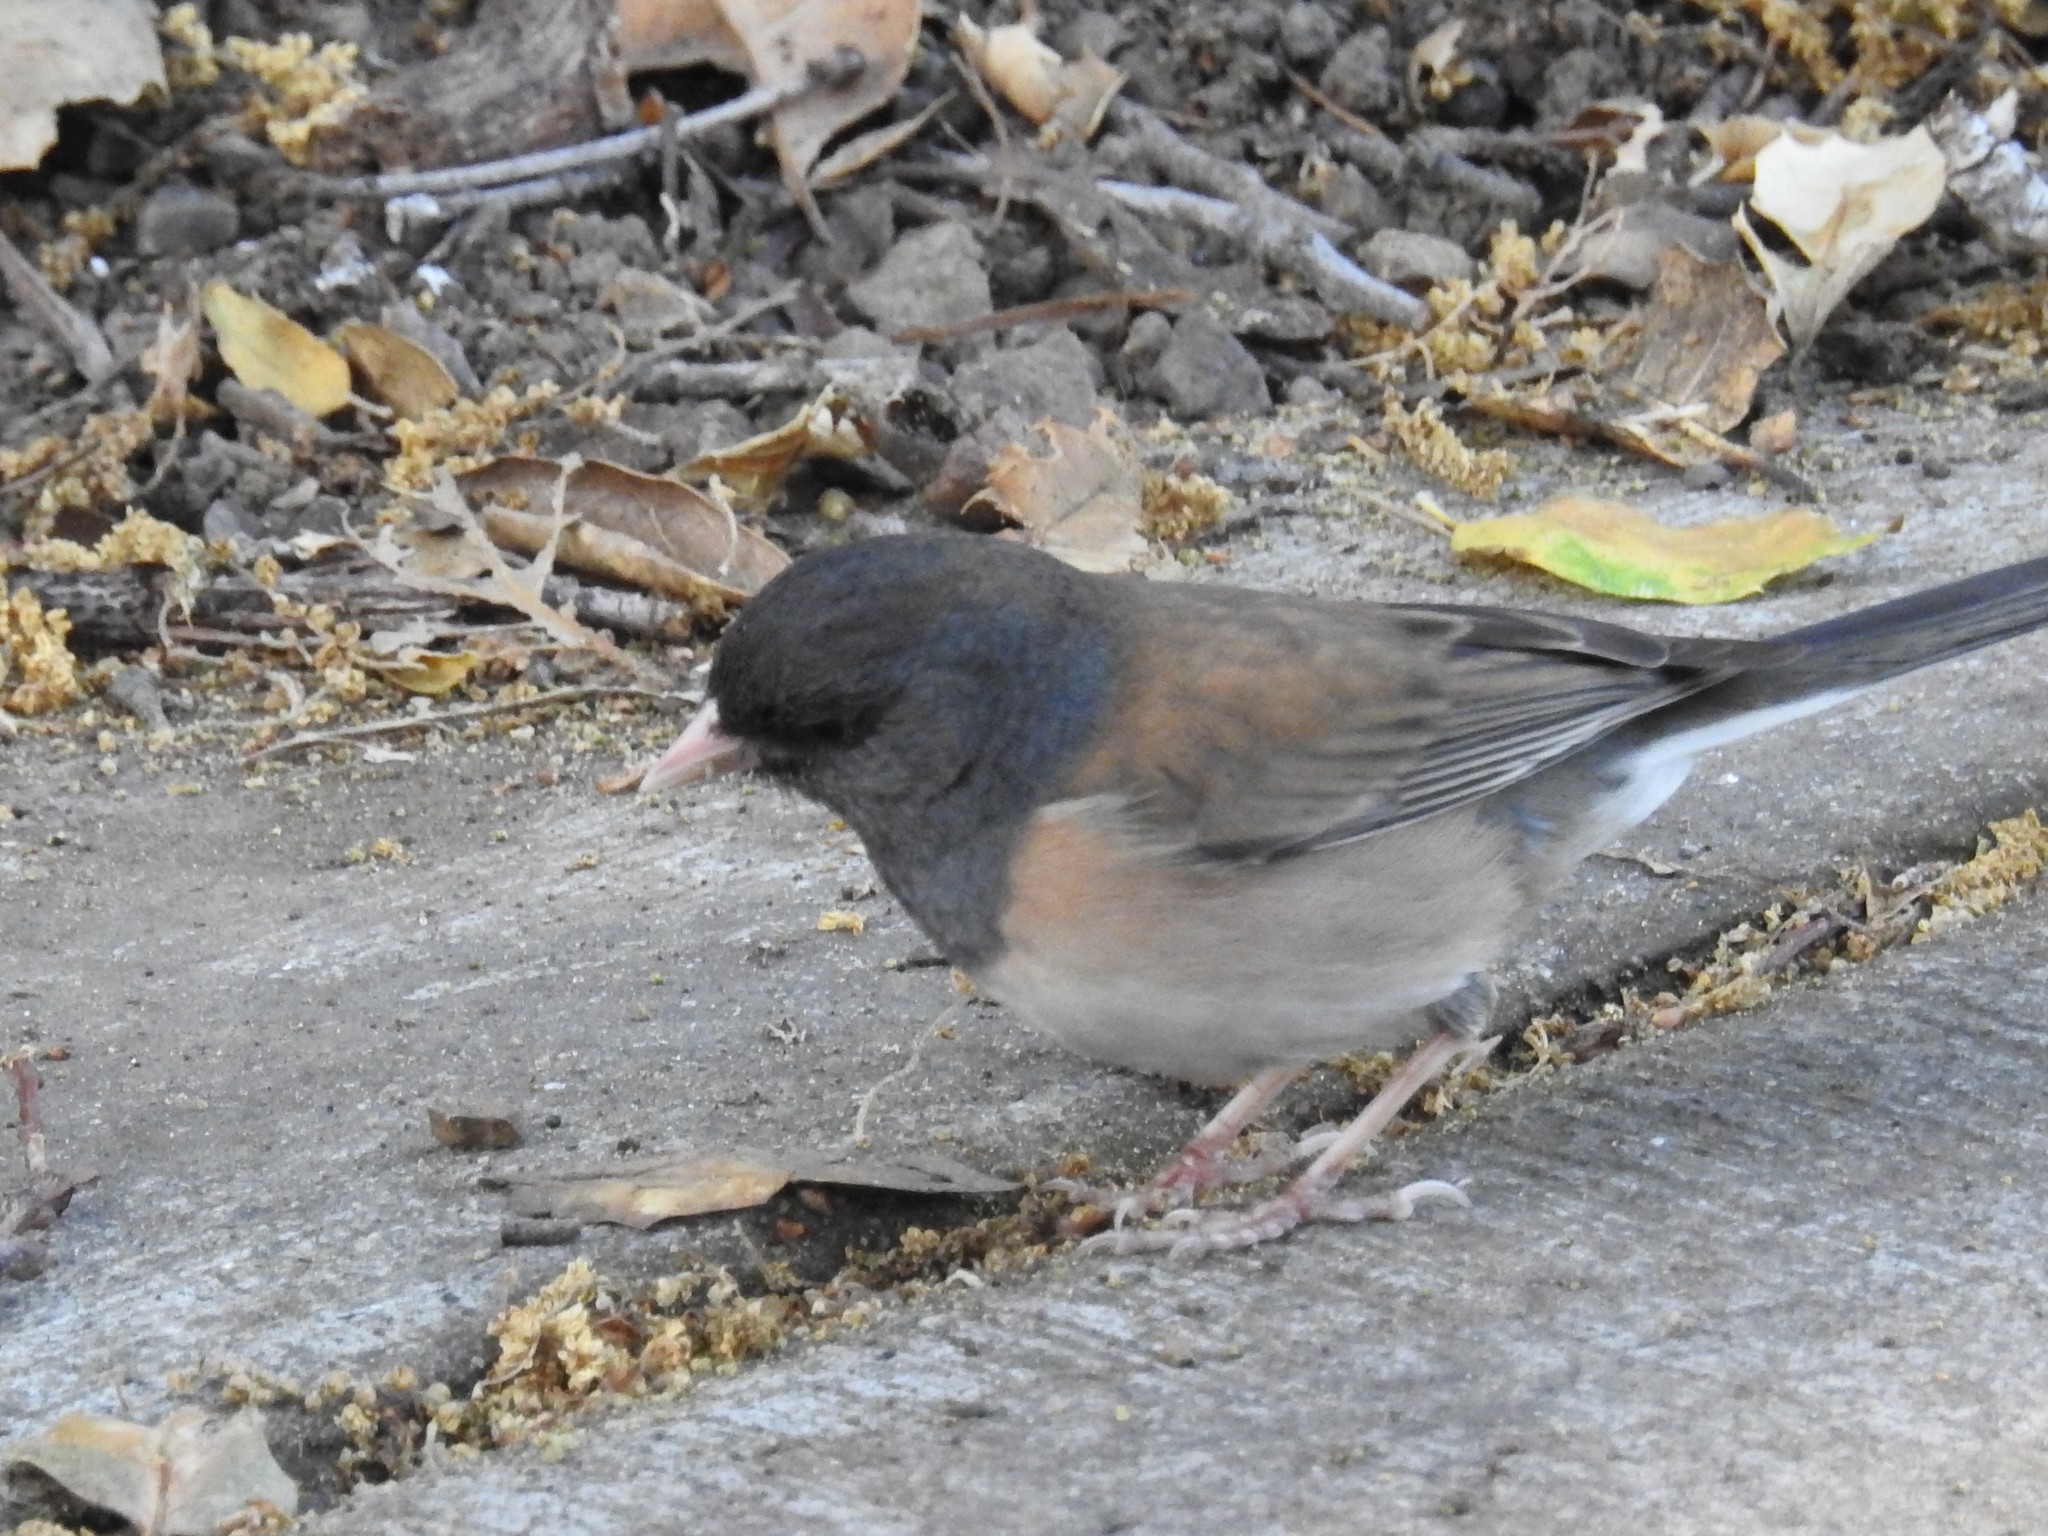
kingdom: Animalia
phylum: Chordata
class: Aves
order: Passeriformes
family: Passerellidae
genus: Junco
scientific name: Junco hyemalis
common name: Dark-eyed junco
